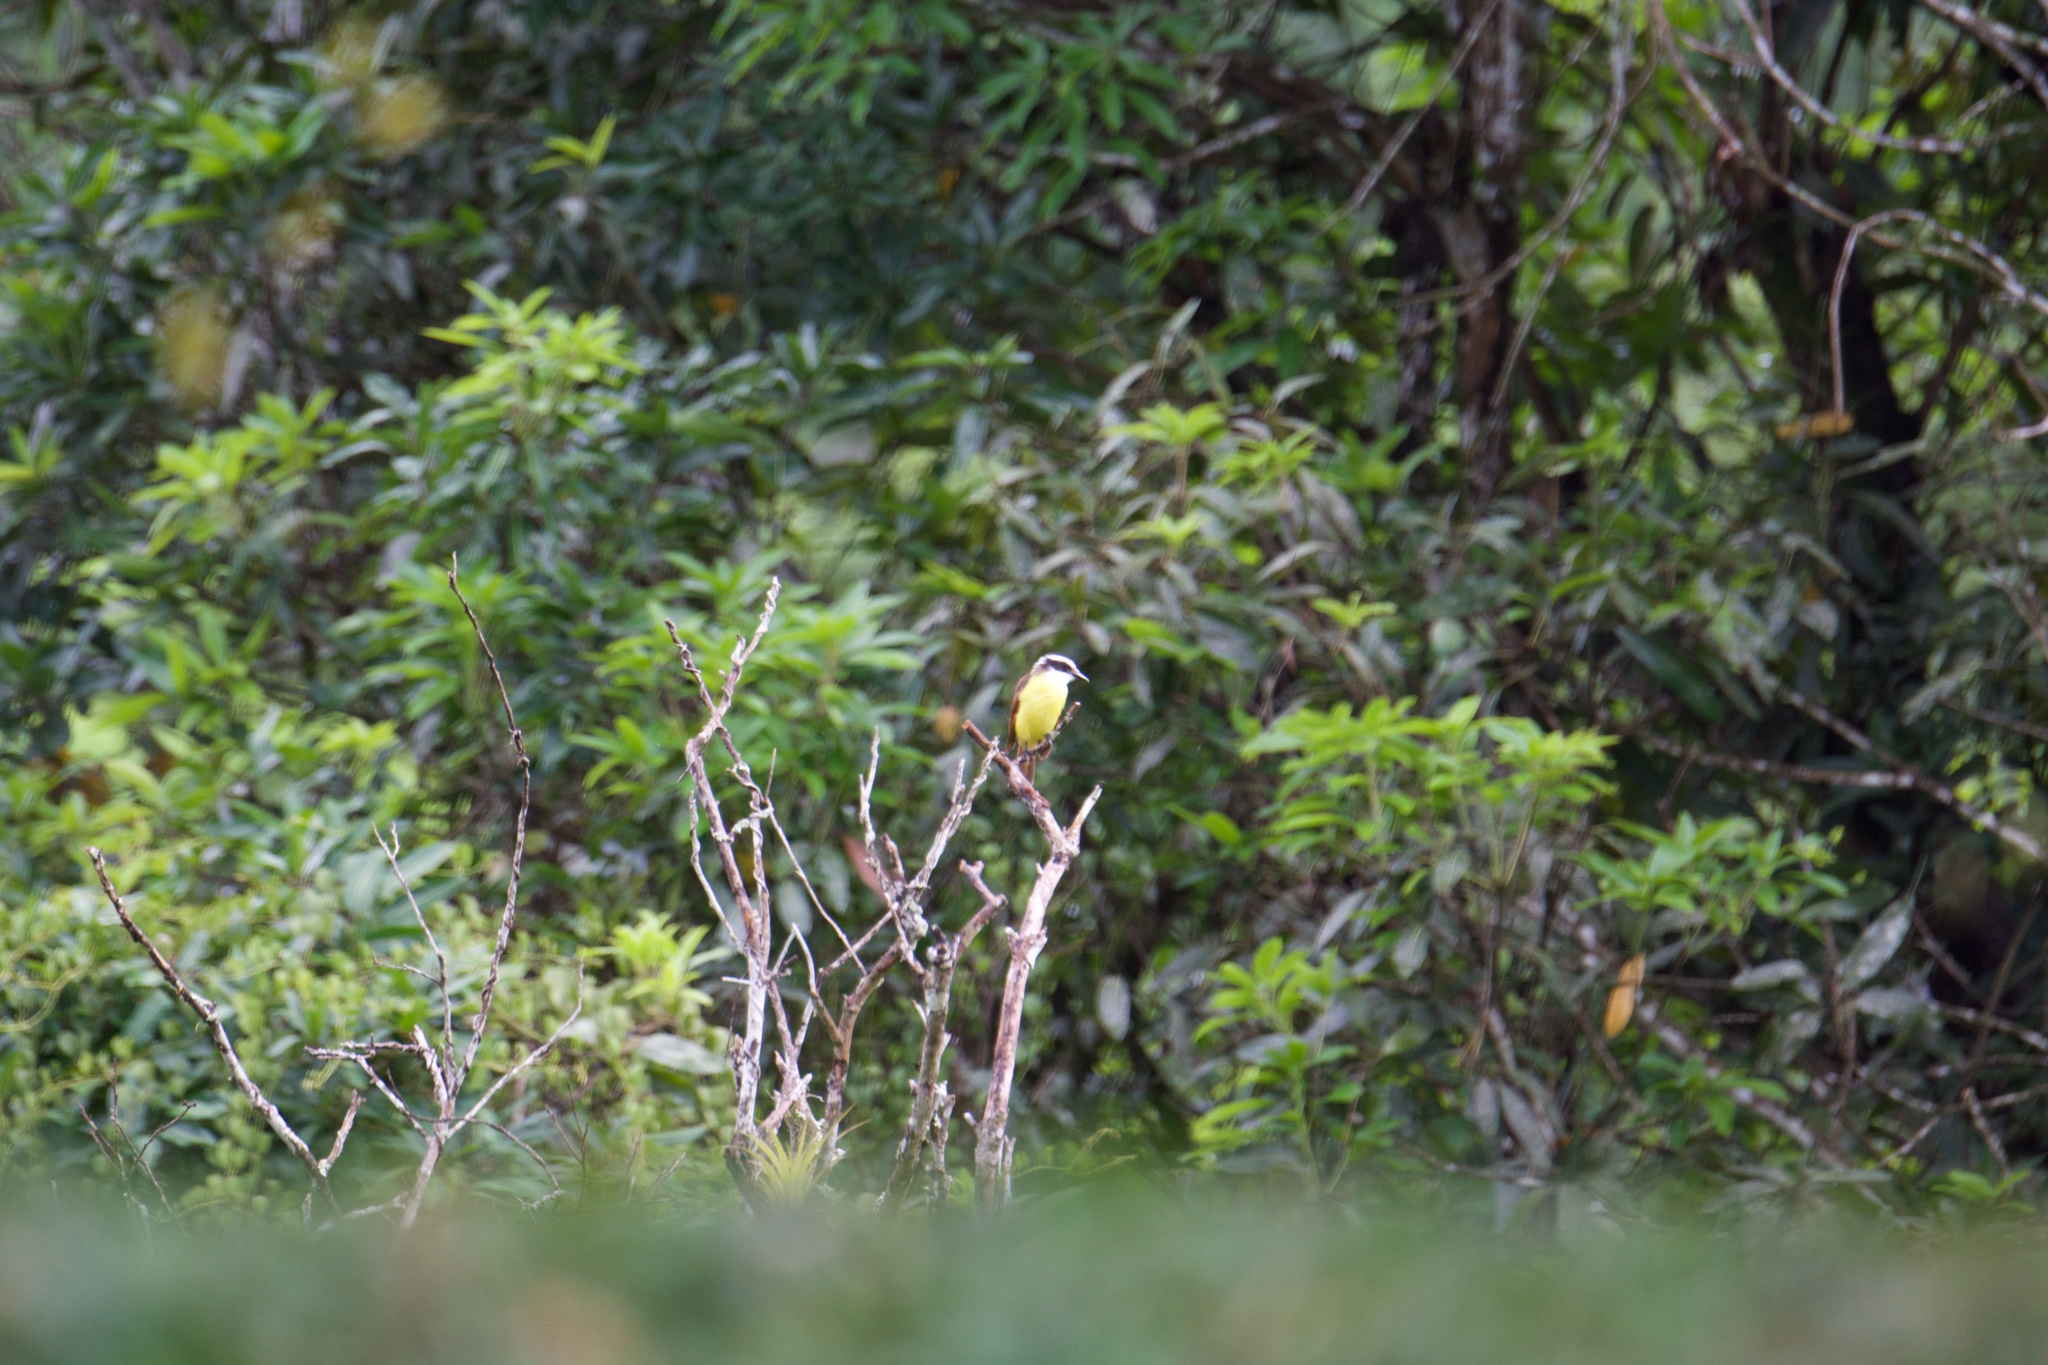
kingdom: Animalia
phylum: Chordata
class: Aves
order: Passeriformes
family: Tyrannidae
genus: Pitangus
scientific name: Pitangus sulphuratus
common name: Great kiskadee
